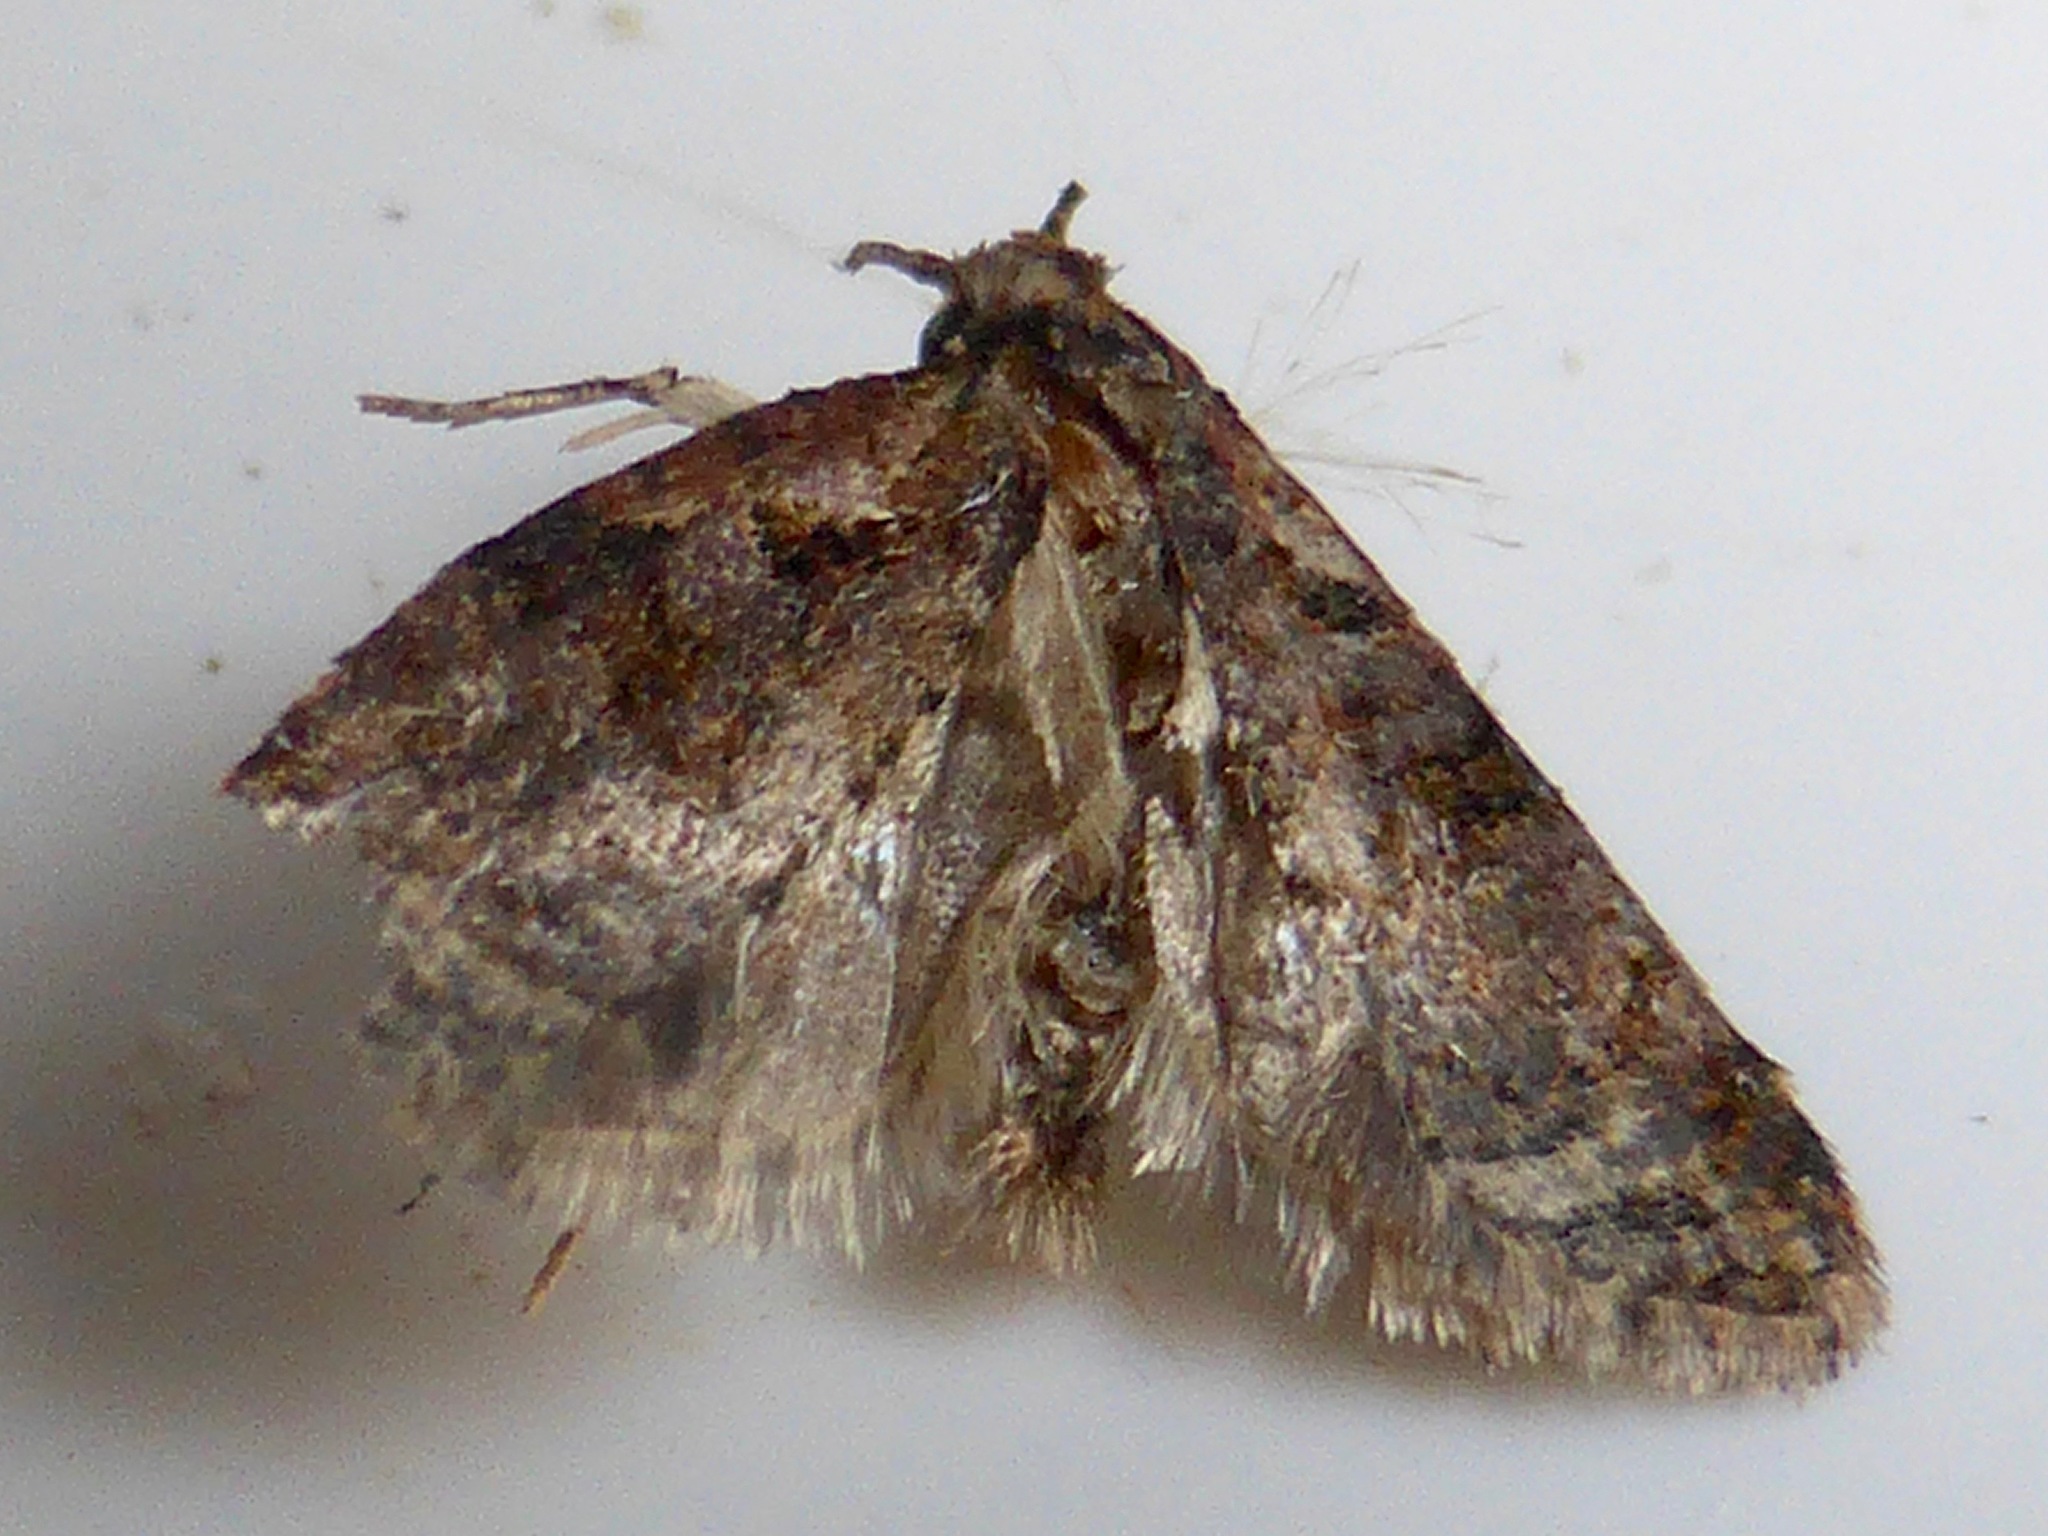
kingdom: Animalia
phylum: Arthropoda
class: Insecta
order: Lepidoptera
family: Tortricidae
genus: Capua
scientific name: Capua intractana
